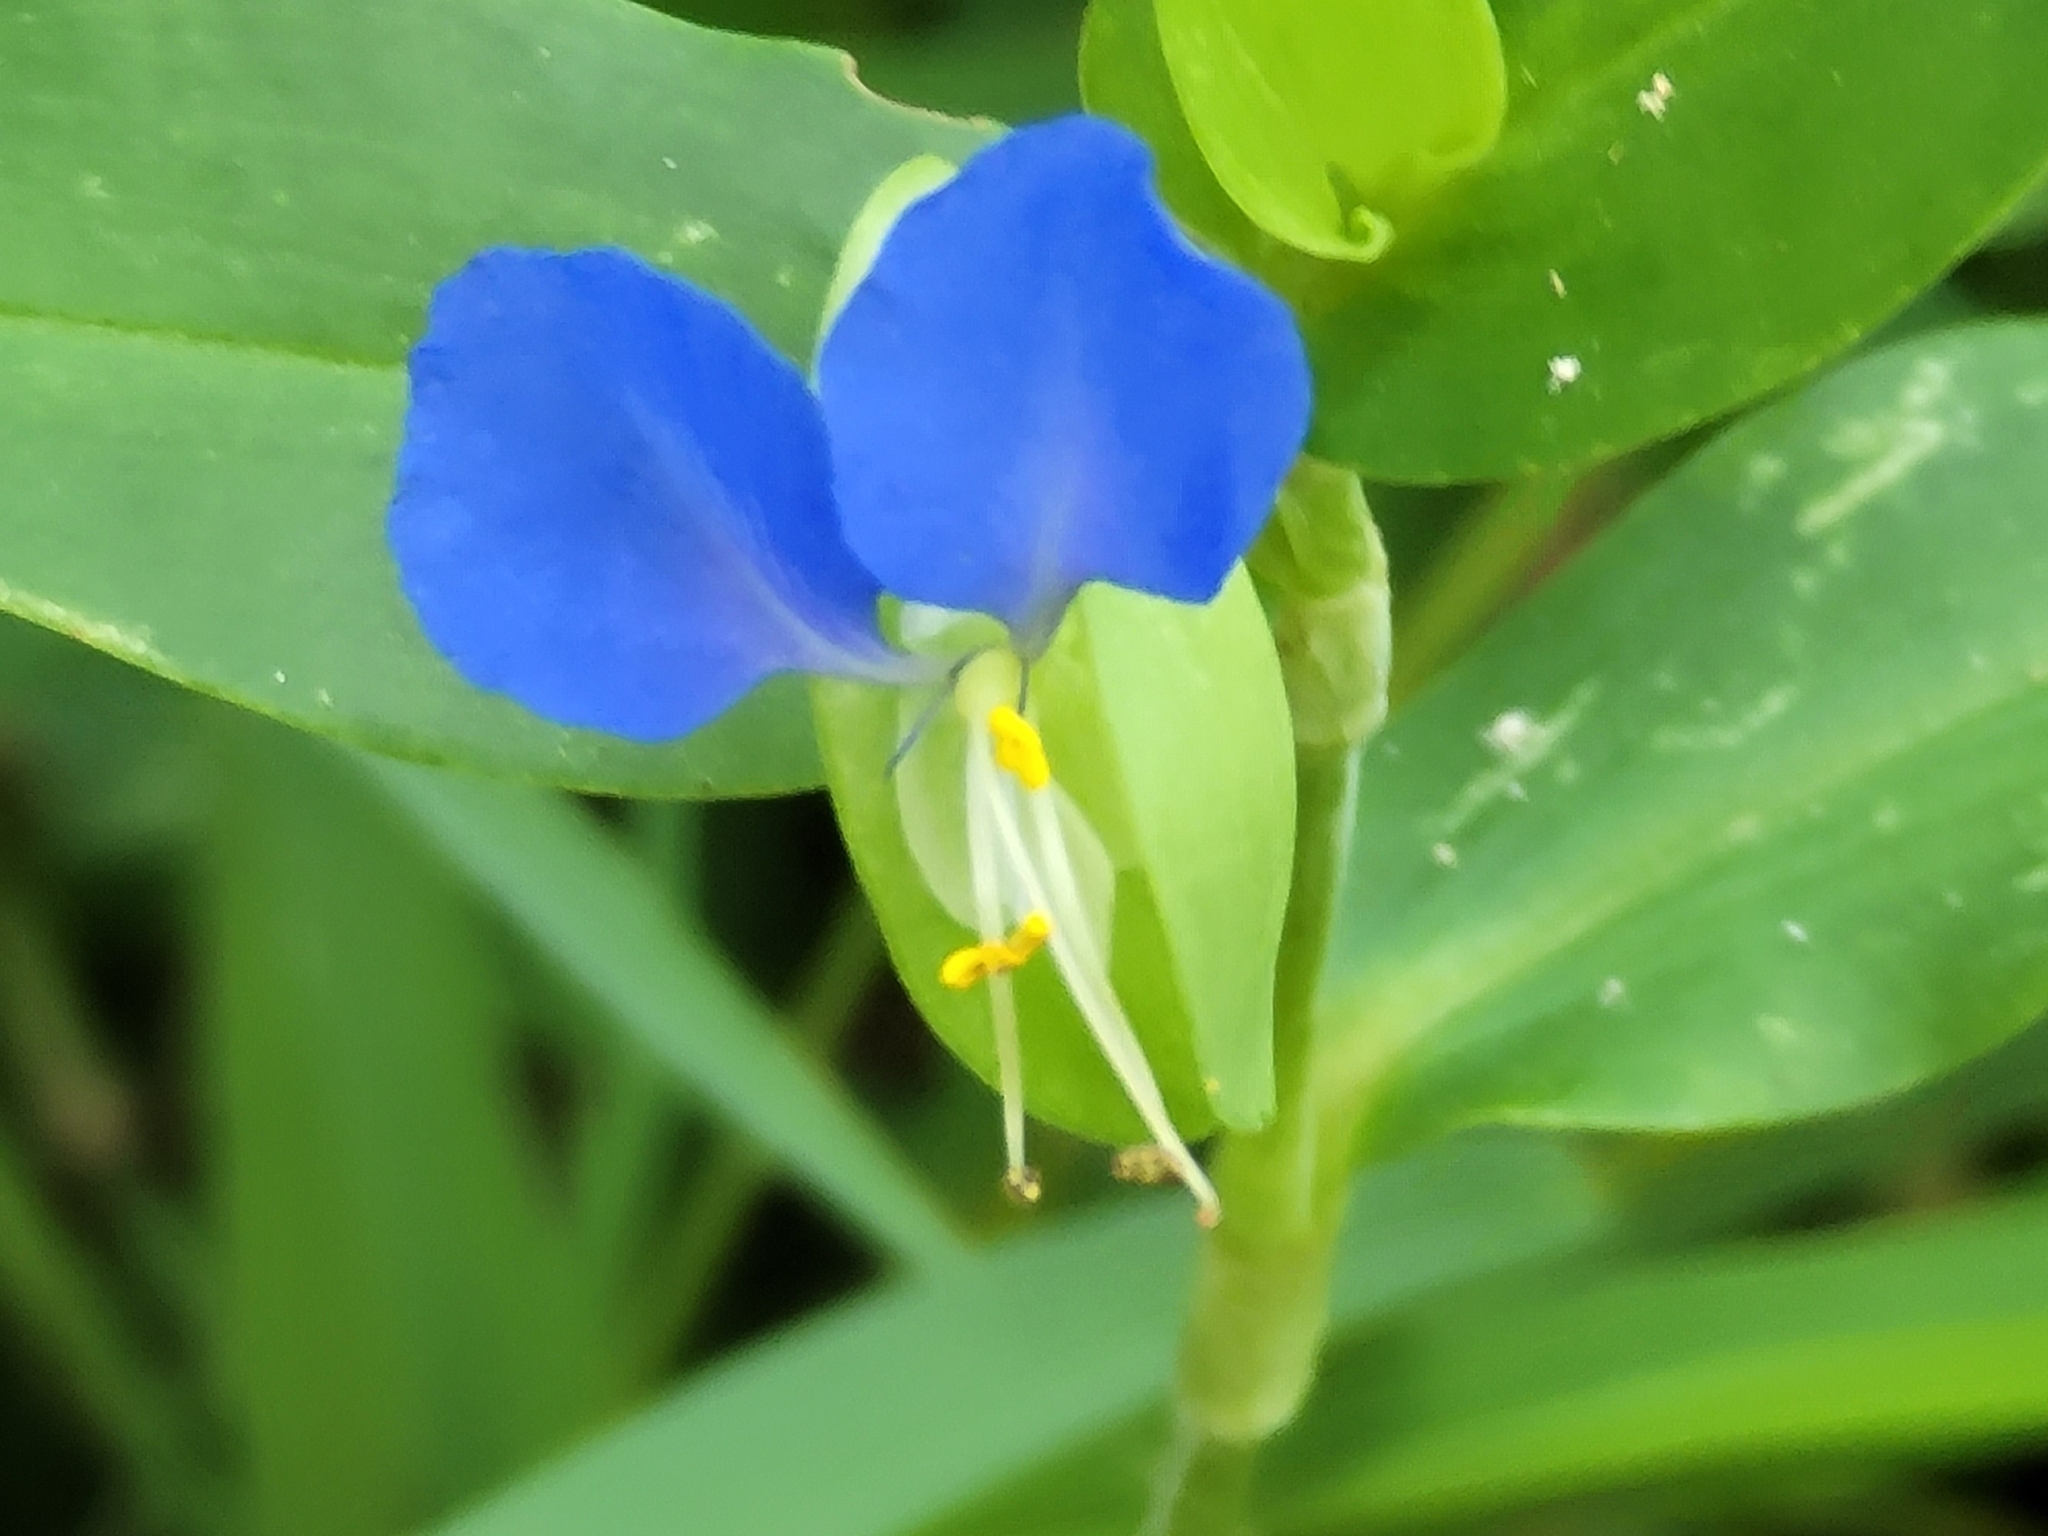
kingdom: Plantae
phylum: Tracheophyta
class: Liliopsida
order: Commelinales
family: Commelinaceae
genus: Commelina
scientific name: Commelina communis
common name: Asiatic dayflower
